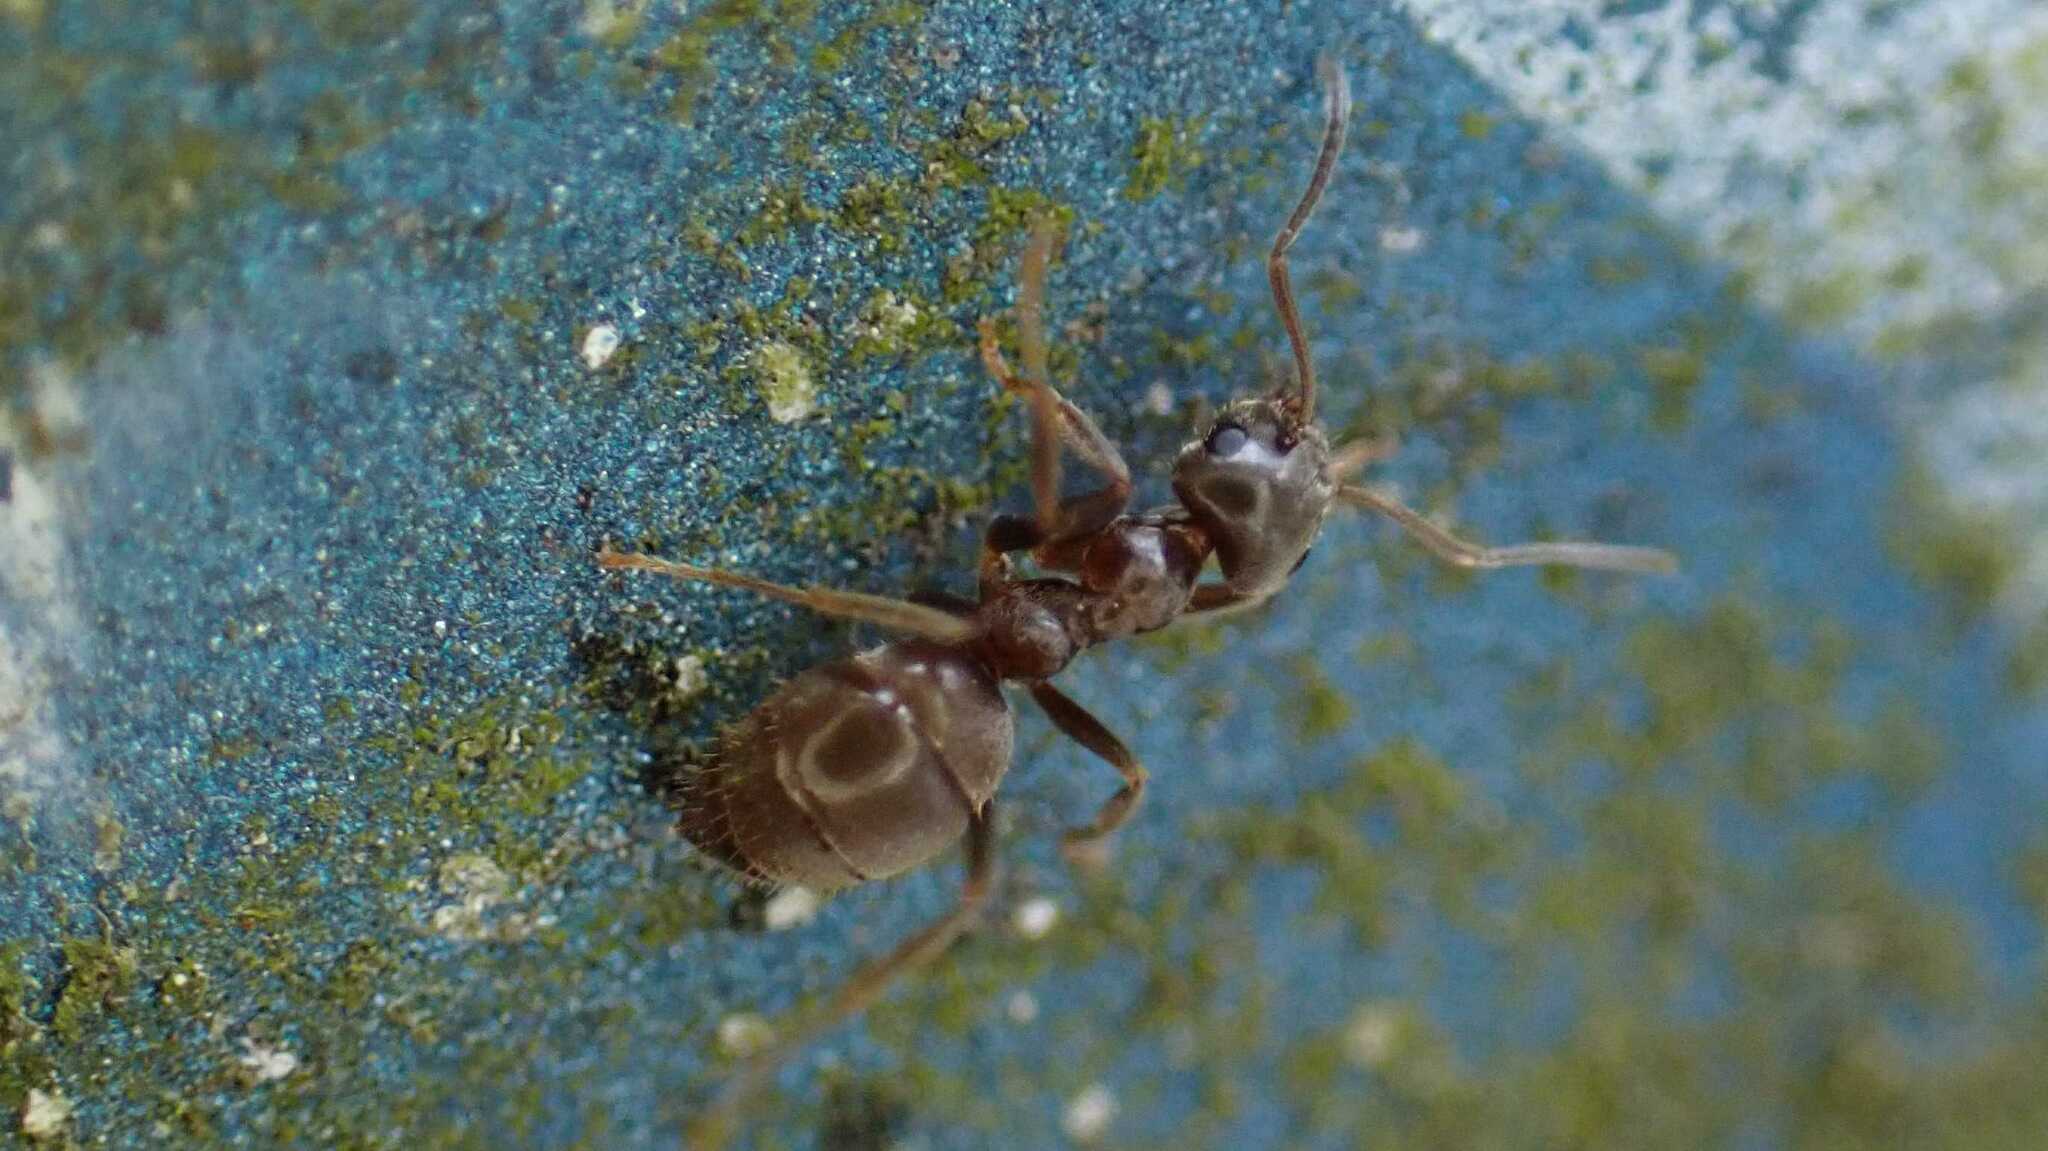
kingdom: Animalia
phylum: Arthropoda
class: Insecta
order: Hymenoptera
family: Formicidae
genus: Lasius
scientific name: Lasius
